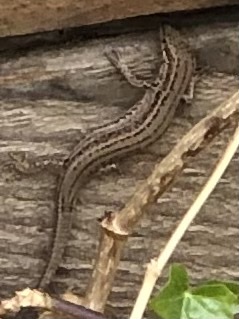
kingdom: Animalia
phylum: Chordata
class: Squamata
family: Lacertidae
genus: Podarcis
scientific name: Podarcis liolepis
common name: Catalonian wall lizard
